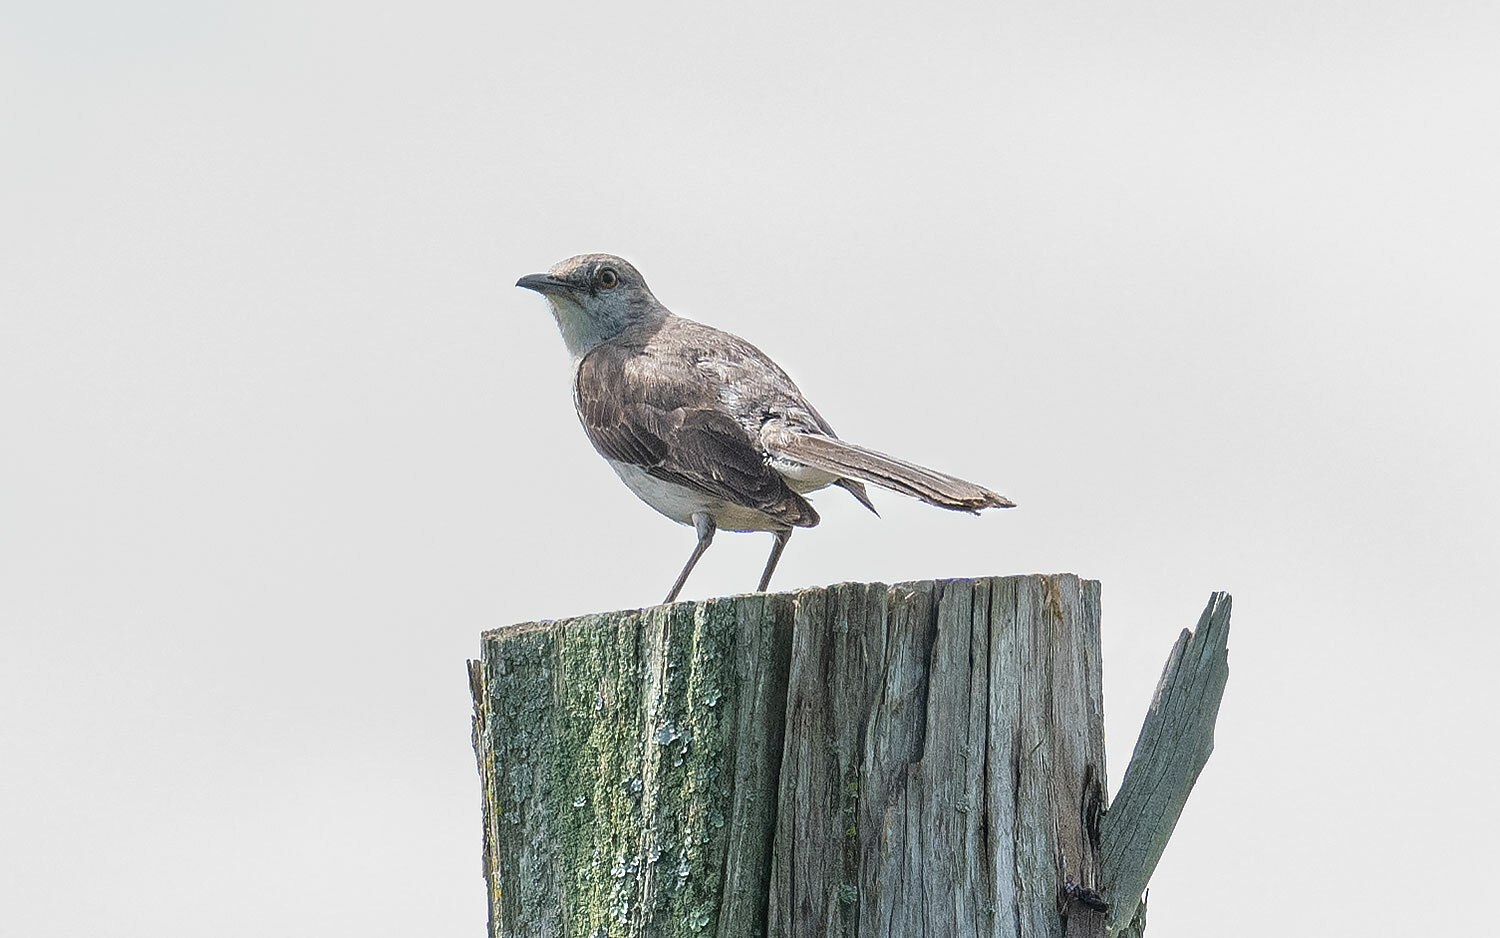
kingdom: Animalia
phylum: Chordata
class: Aves
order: Passeriformes
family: Mimidae
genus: Mimus
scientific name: Mimus polyglottos
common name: Northern mockingbird
